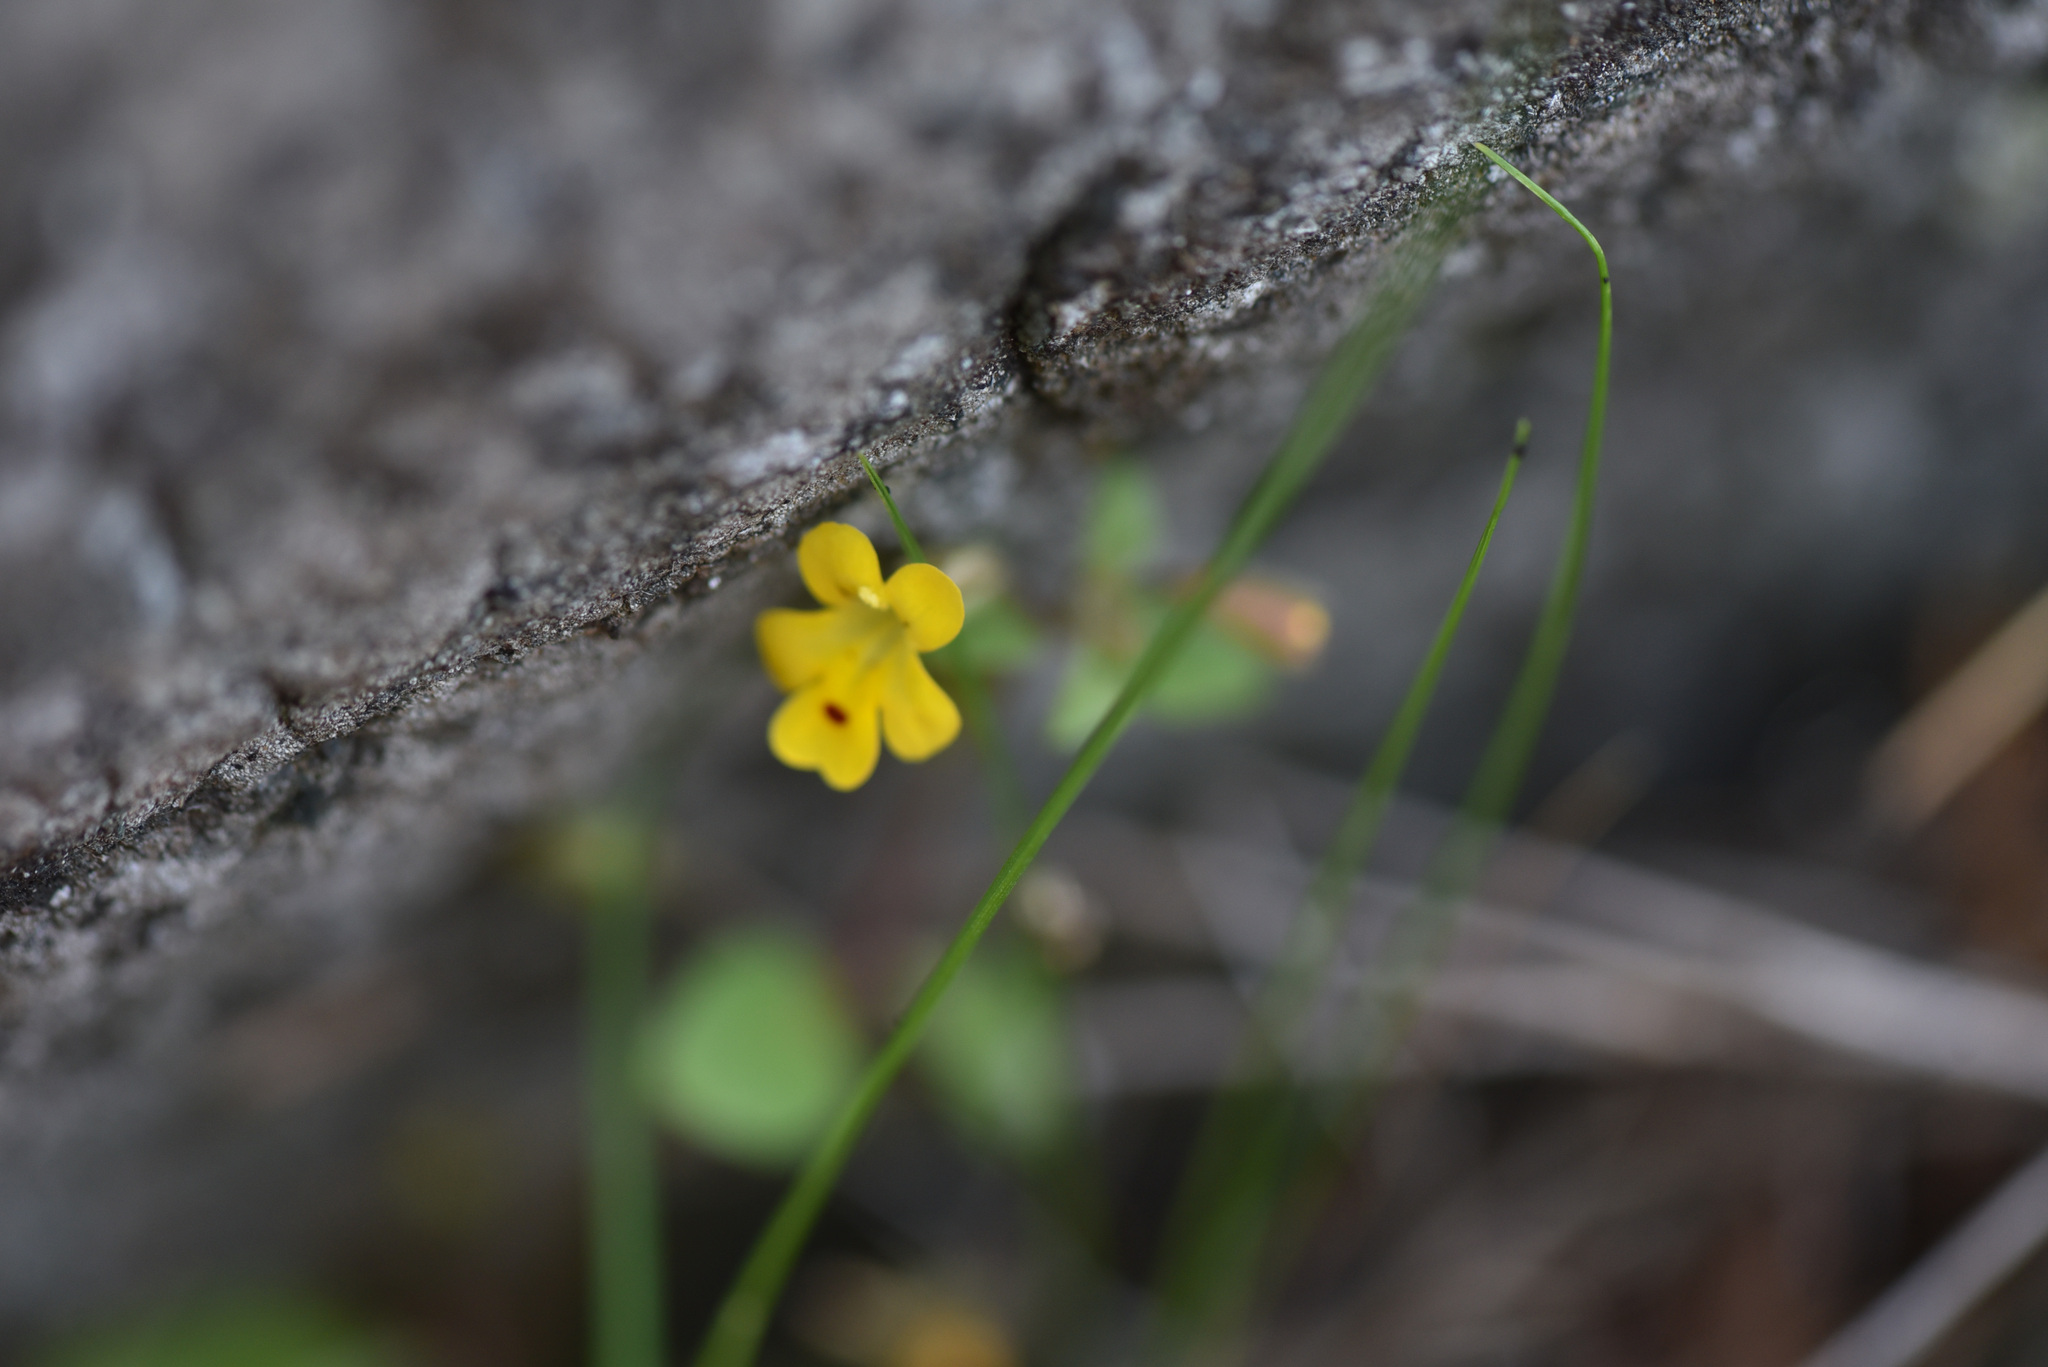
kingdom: Plantae
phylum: Tracheophyta
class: Magnoliopsida
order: Lamiales
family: Phrymaceae
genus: Erythranthe
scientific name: Erythranthe alsinoides
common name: Chickweed monkeyflower
